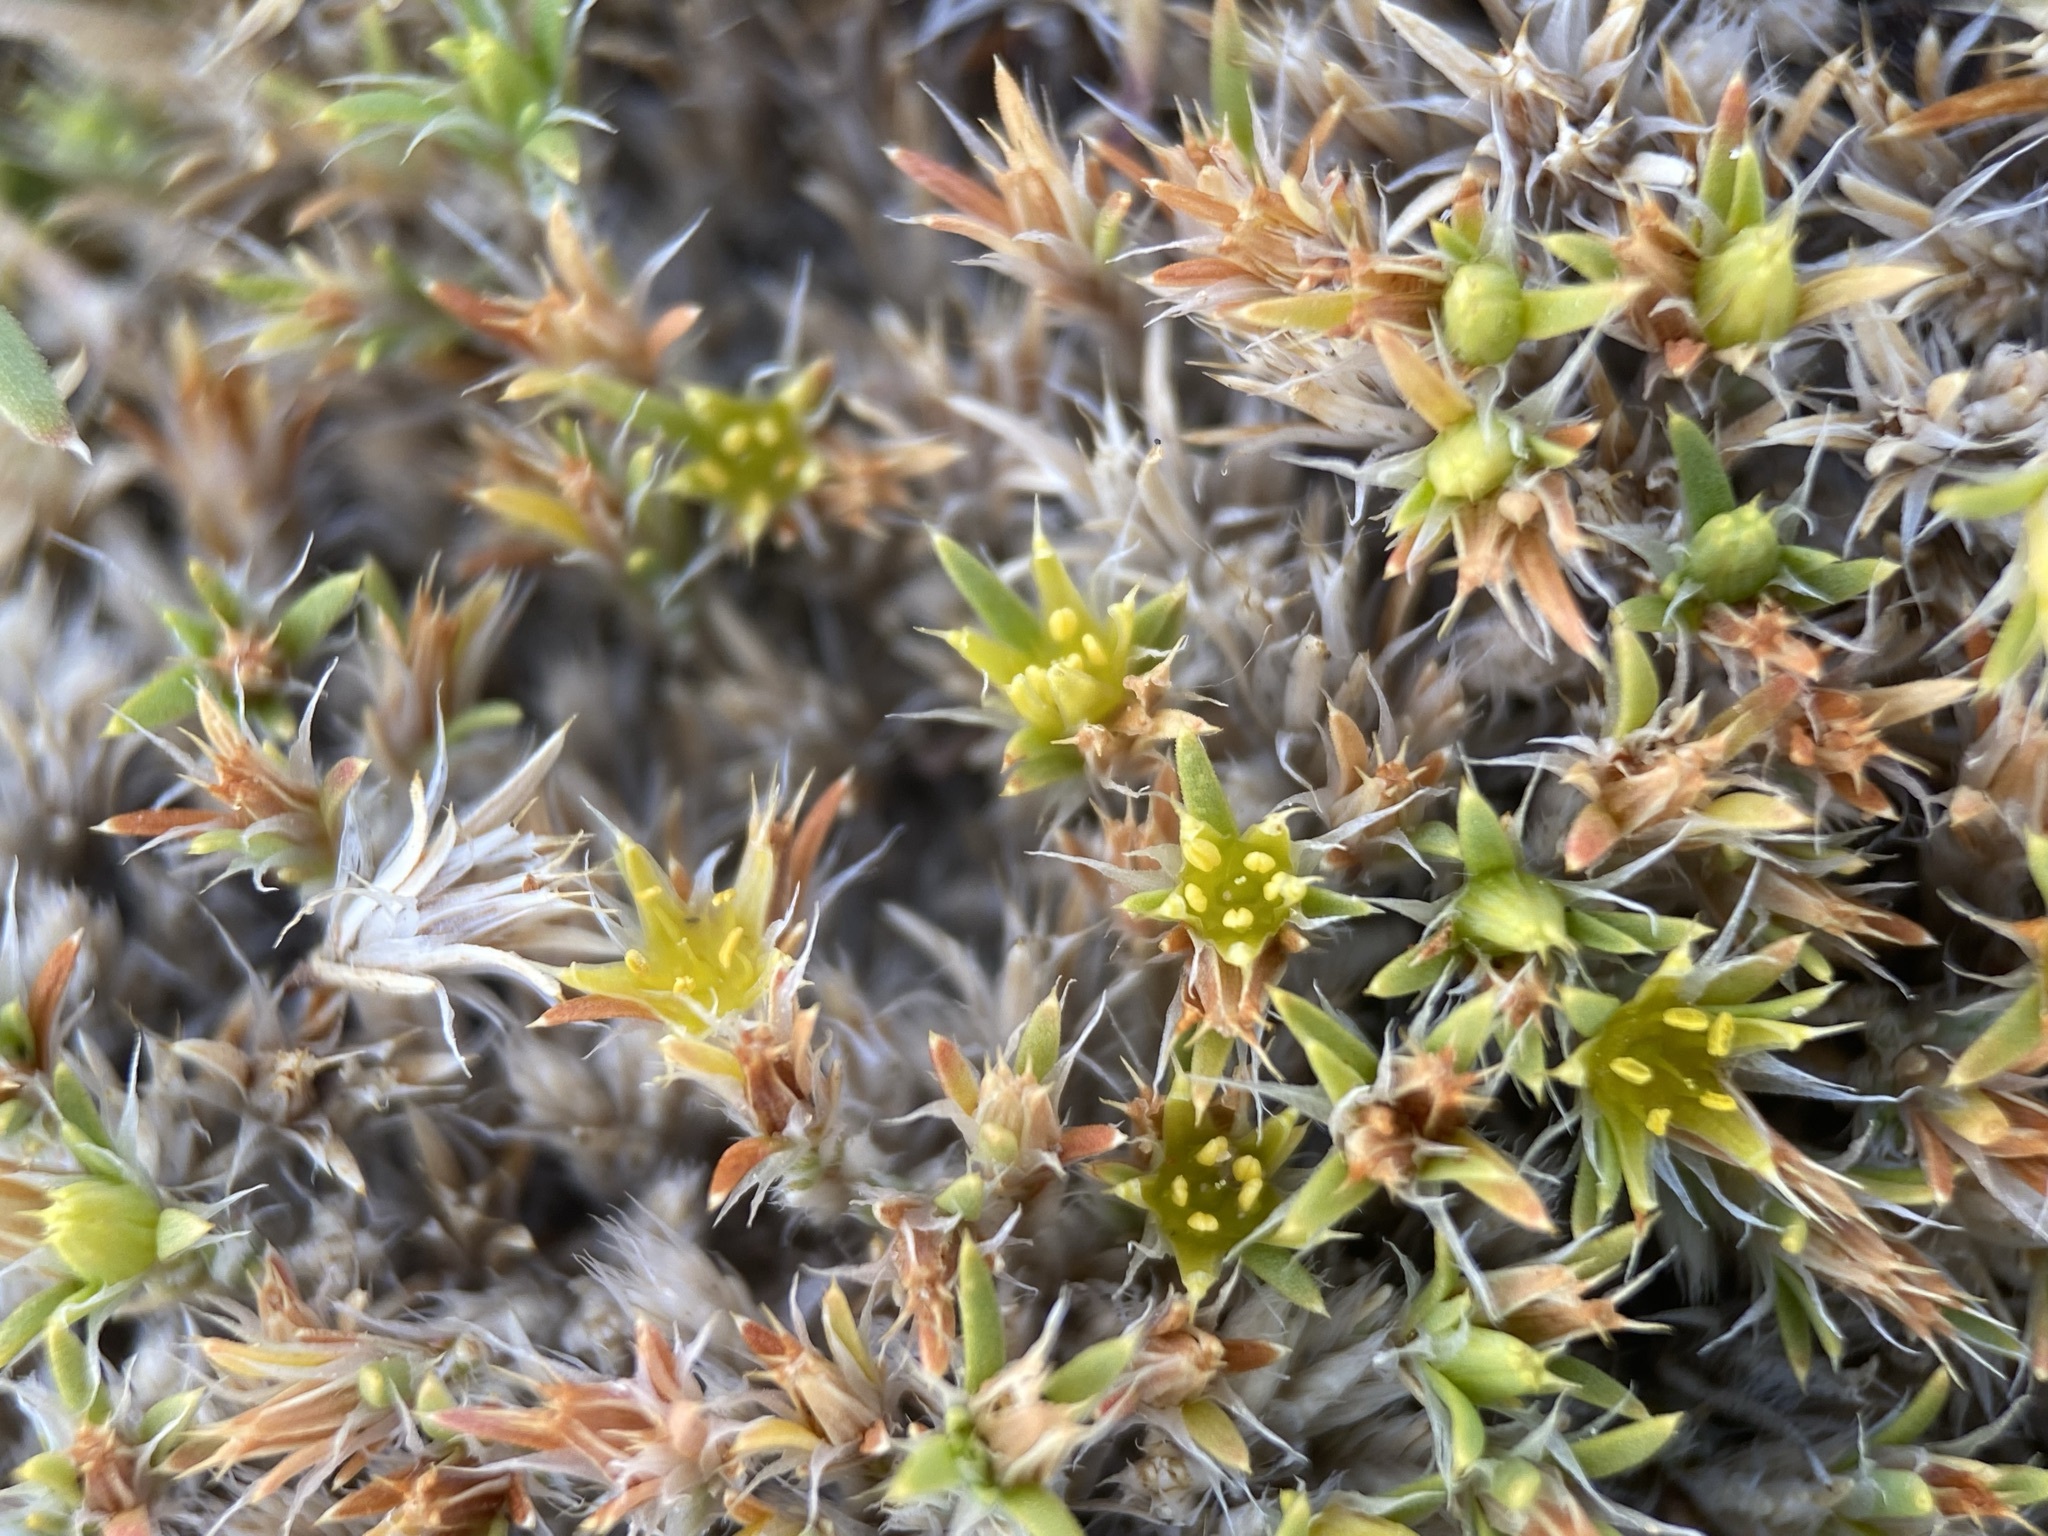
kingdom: Plantae
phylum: Tracheophyta
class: Magnoliopsida
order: Caryophyllales
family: Caryophyllaceae
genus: Paronychia
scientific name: Paronychia sessiliflora
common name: Creeping nailwort
